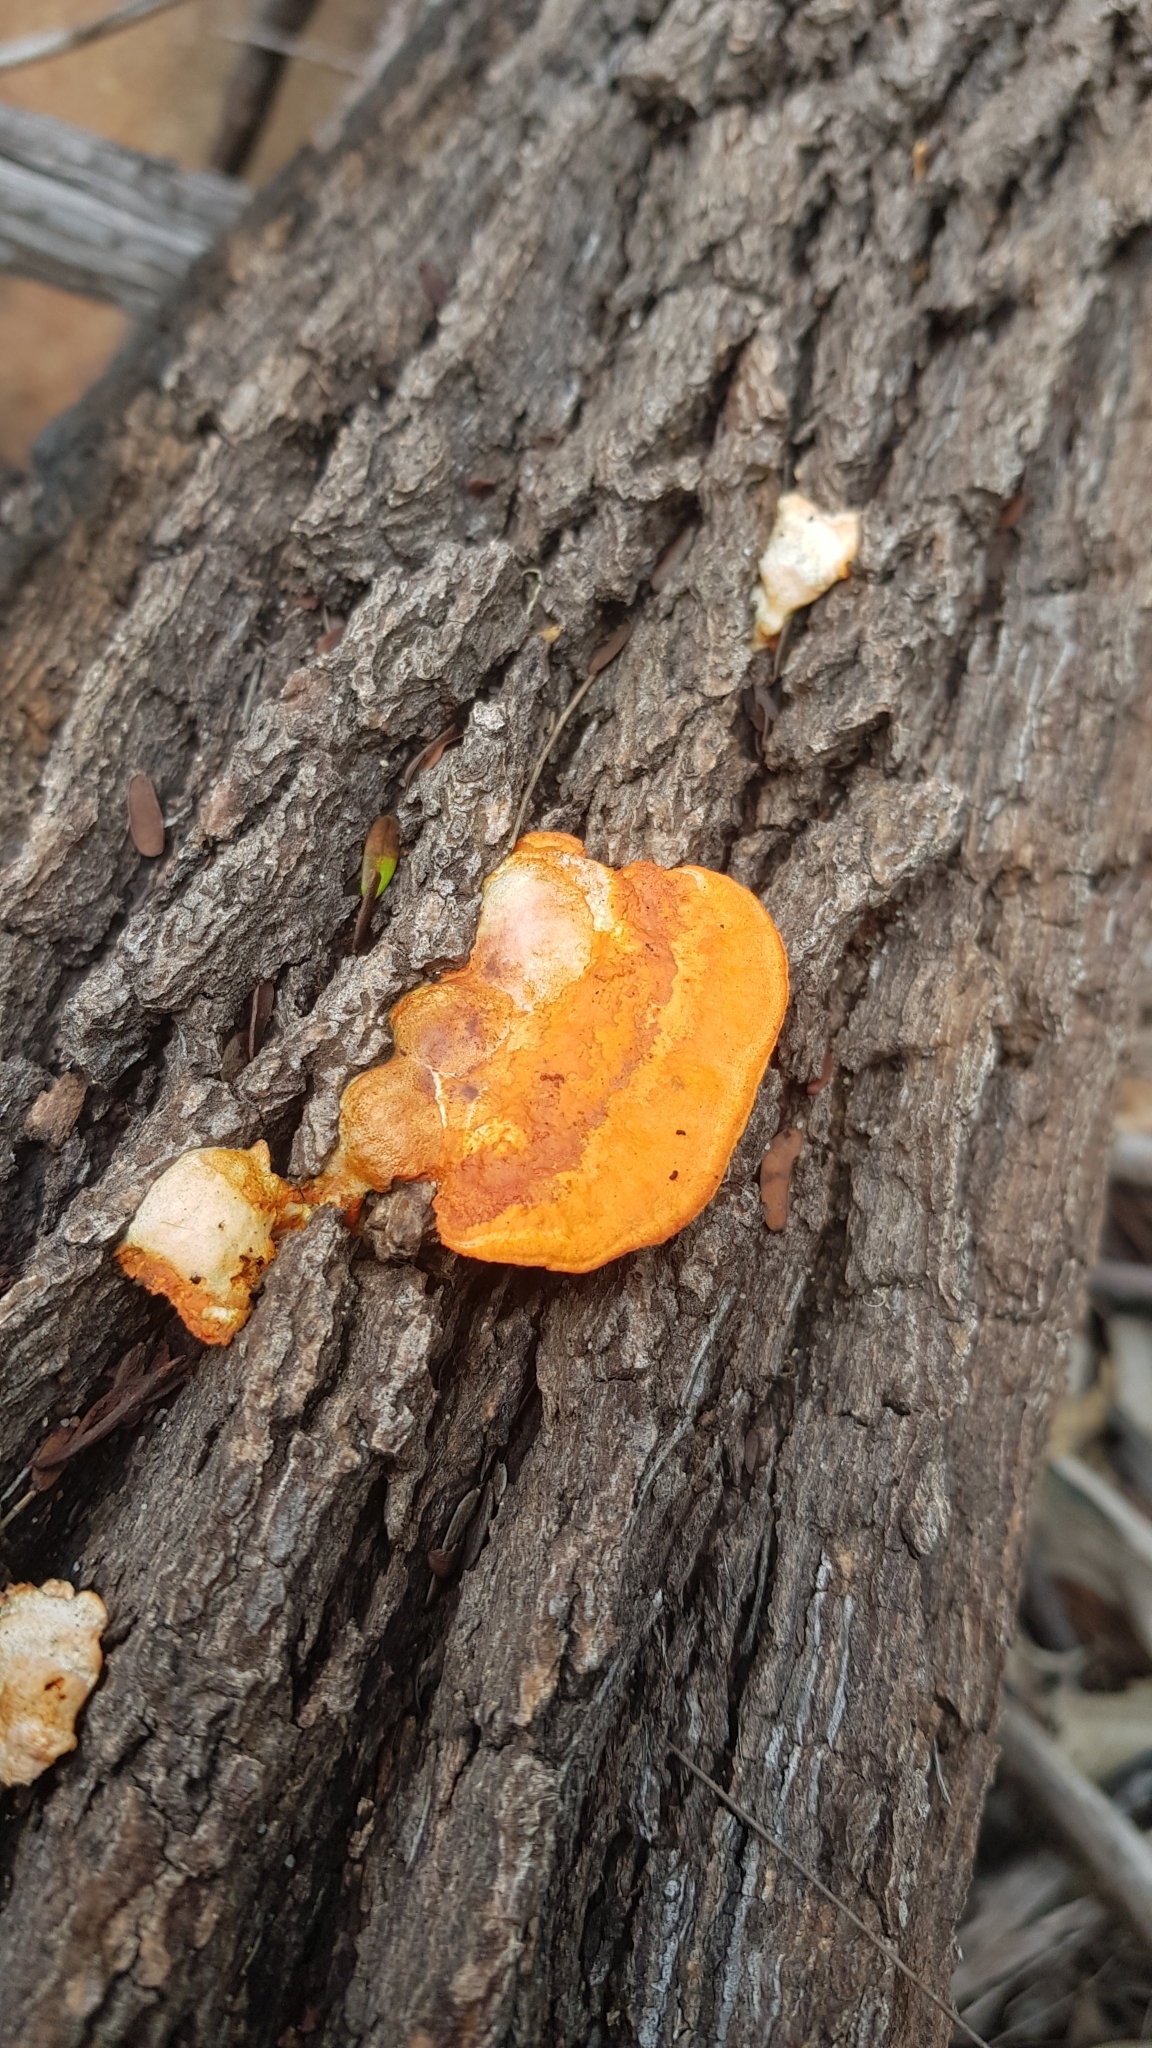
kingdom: Fungi
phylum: Basidiomycota
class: Agaricomycetes
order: Polyporales
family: Polyporaceae
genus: Trametes
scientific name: Trametes coccinea
